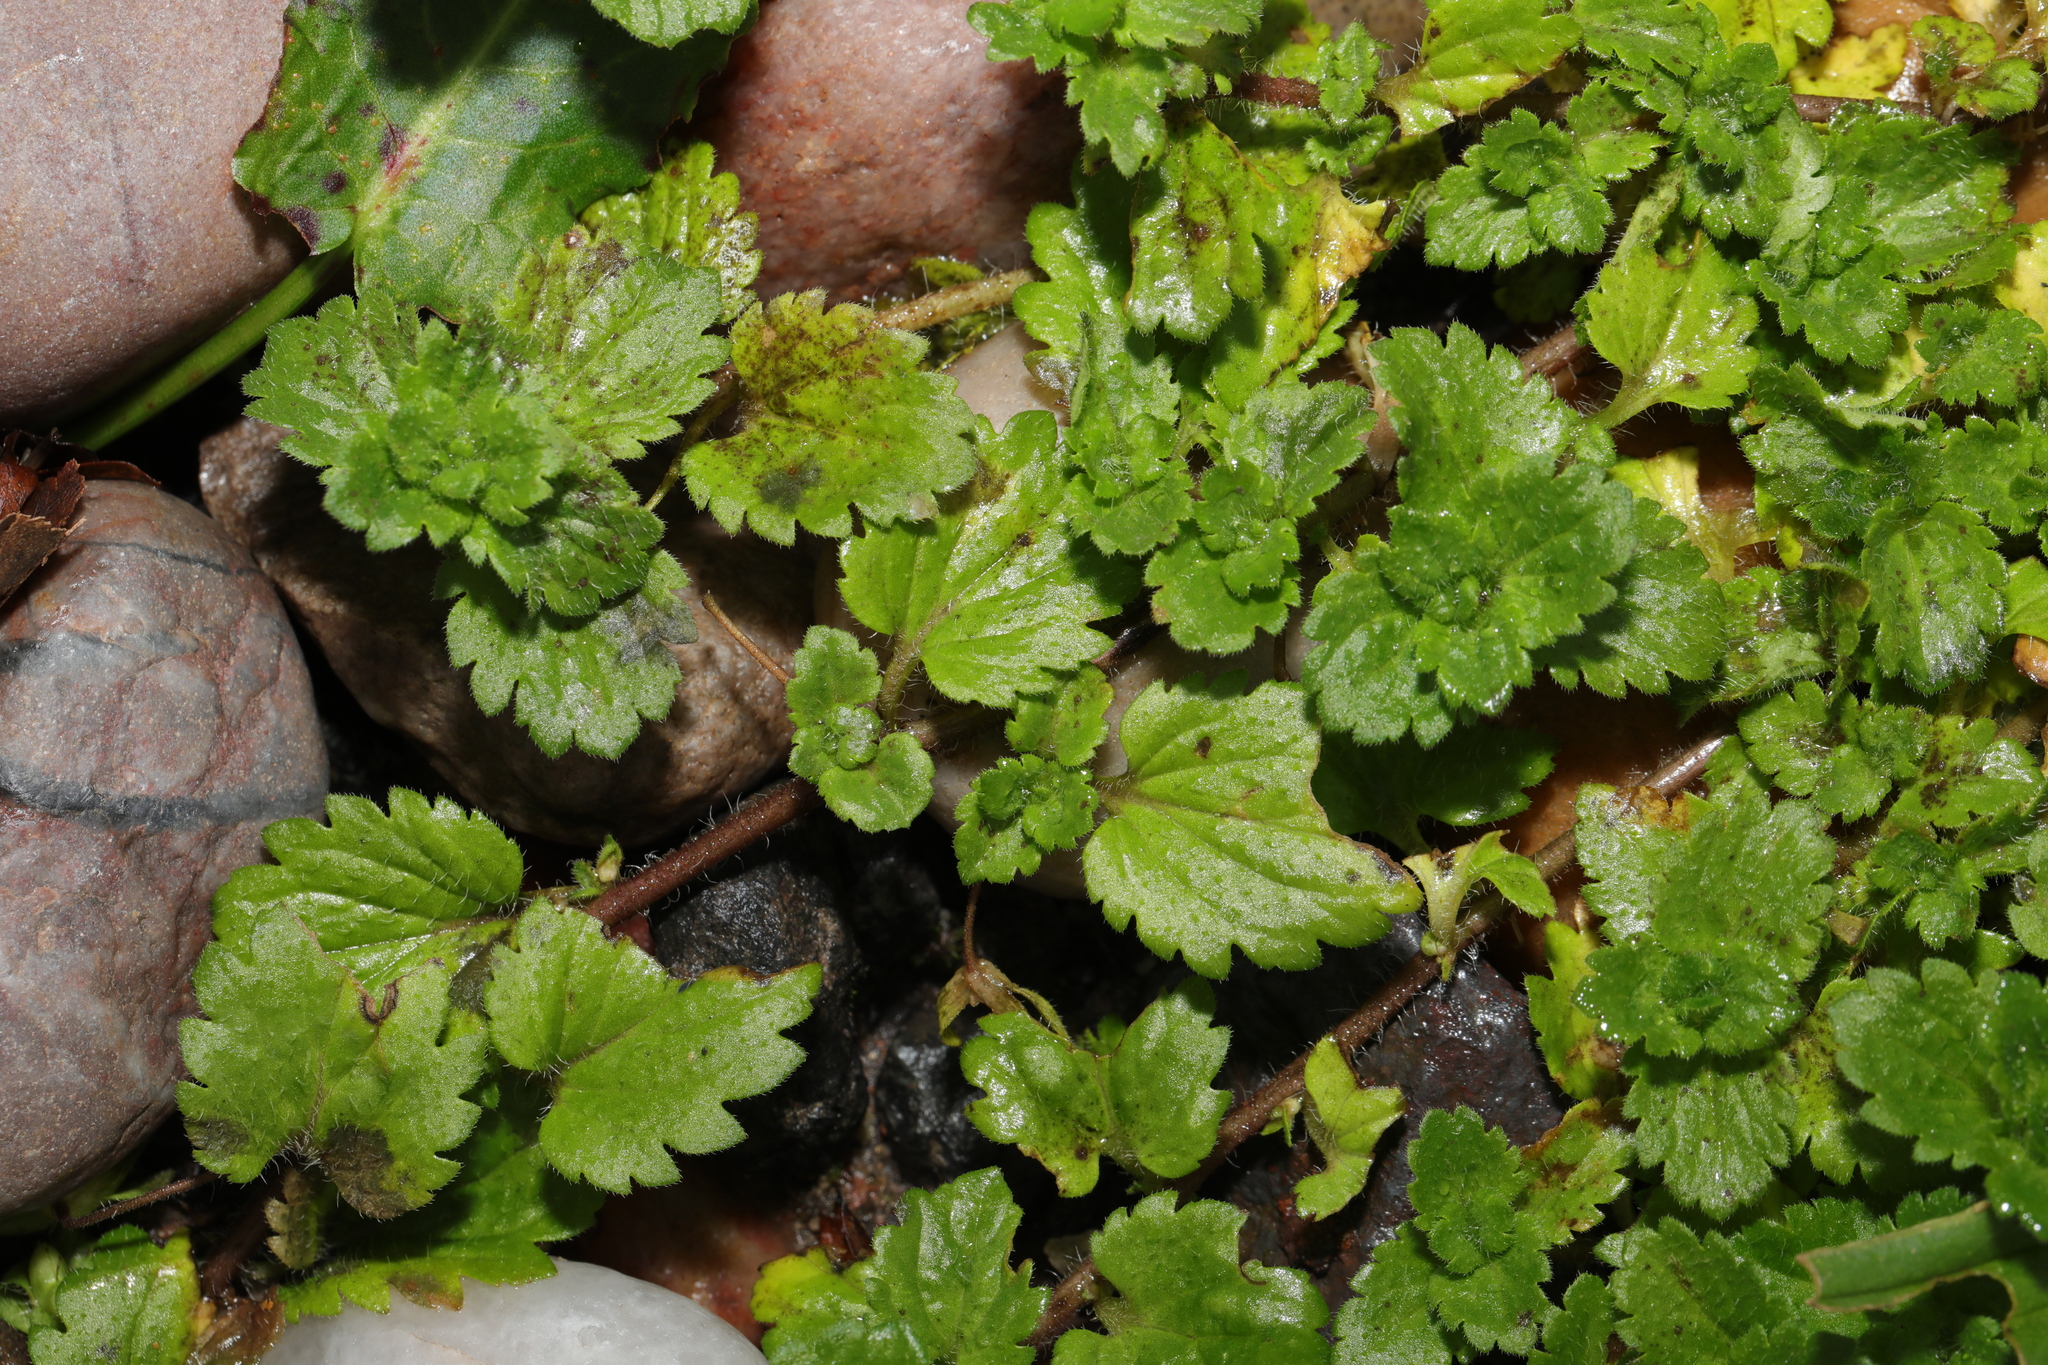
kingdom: Plantae
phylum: Tracheophyta
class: Magnoliopsida
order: Lamiales
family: Plantaginaceae
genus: Veronica
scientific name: Veronica persica
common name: Common field-speedwell
